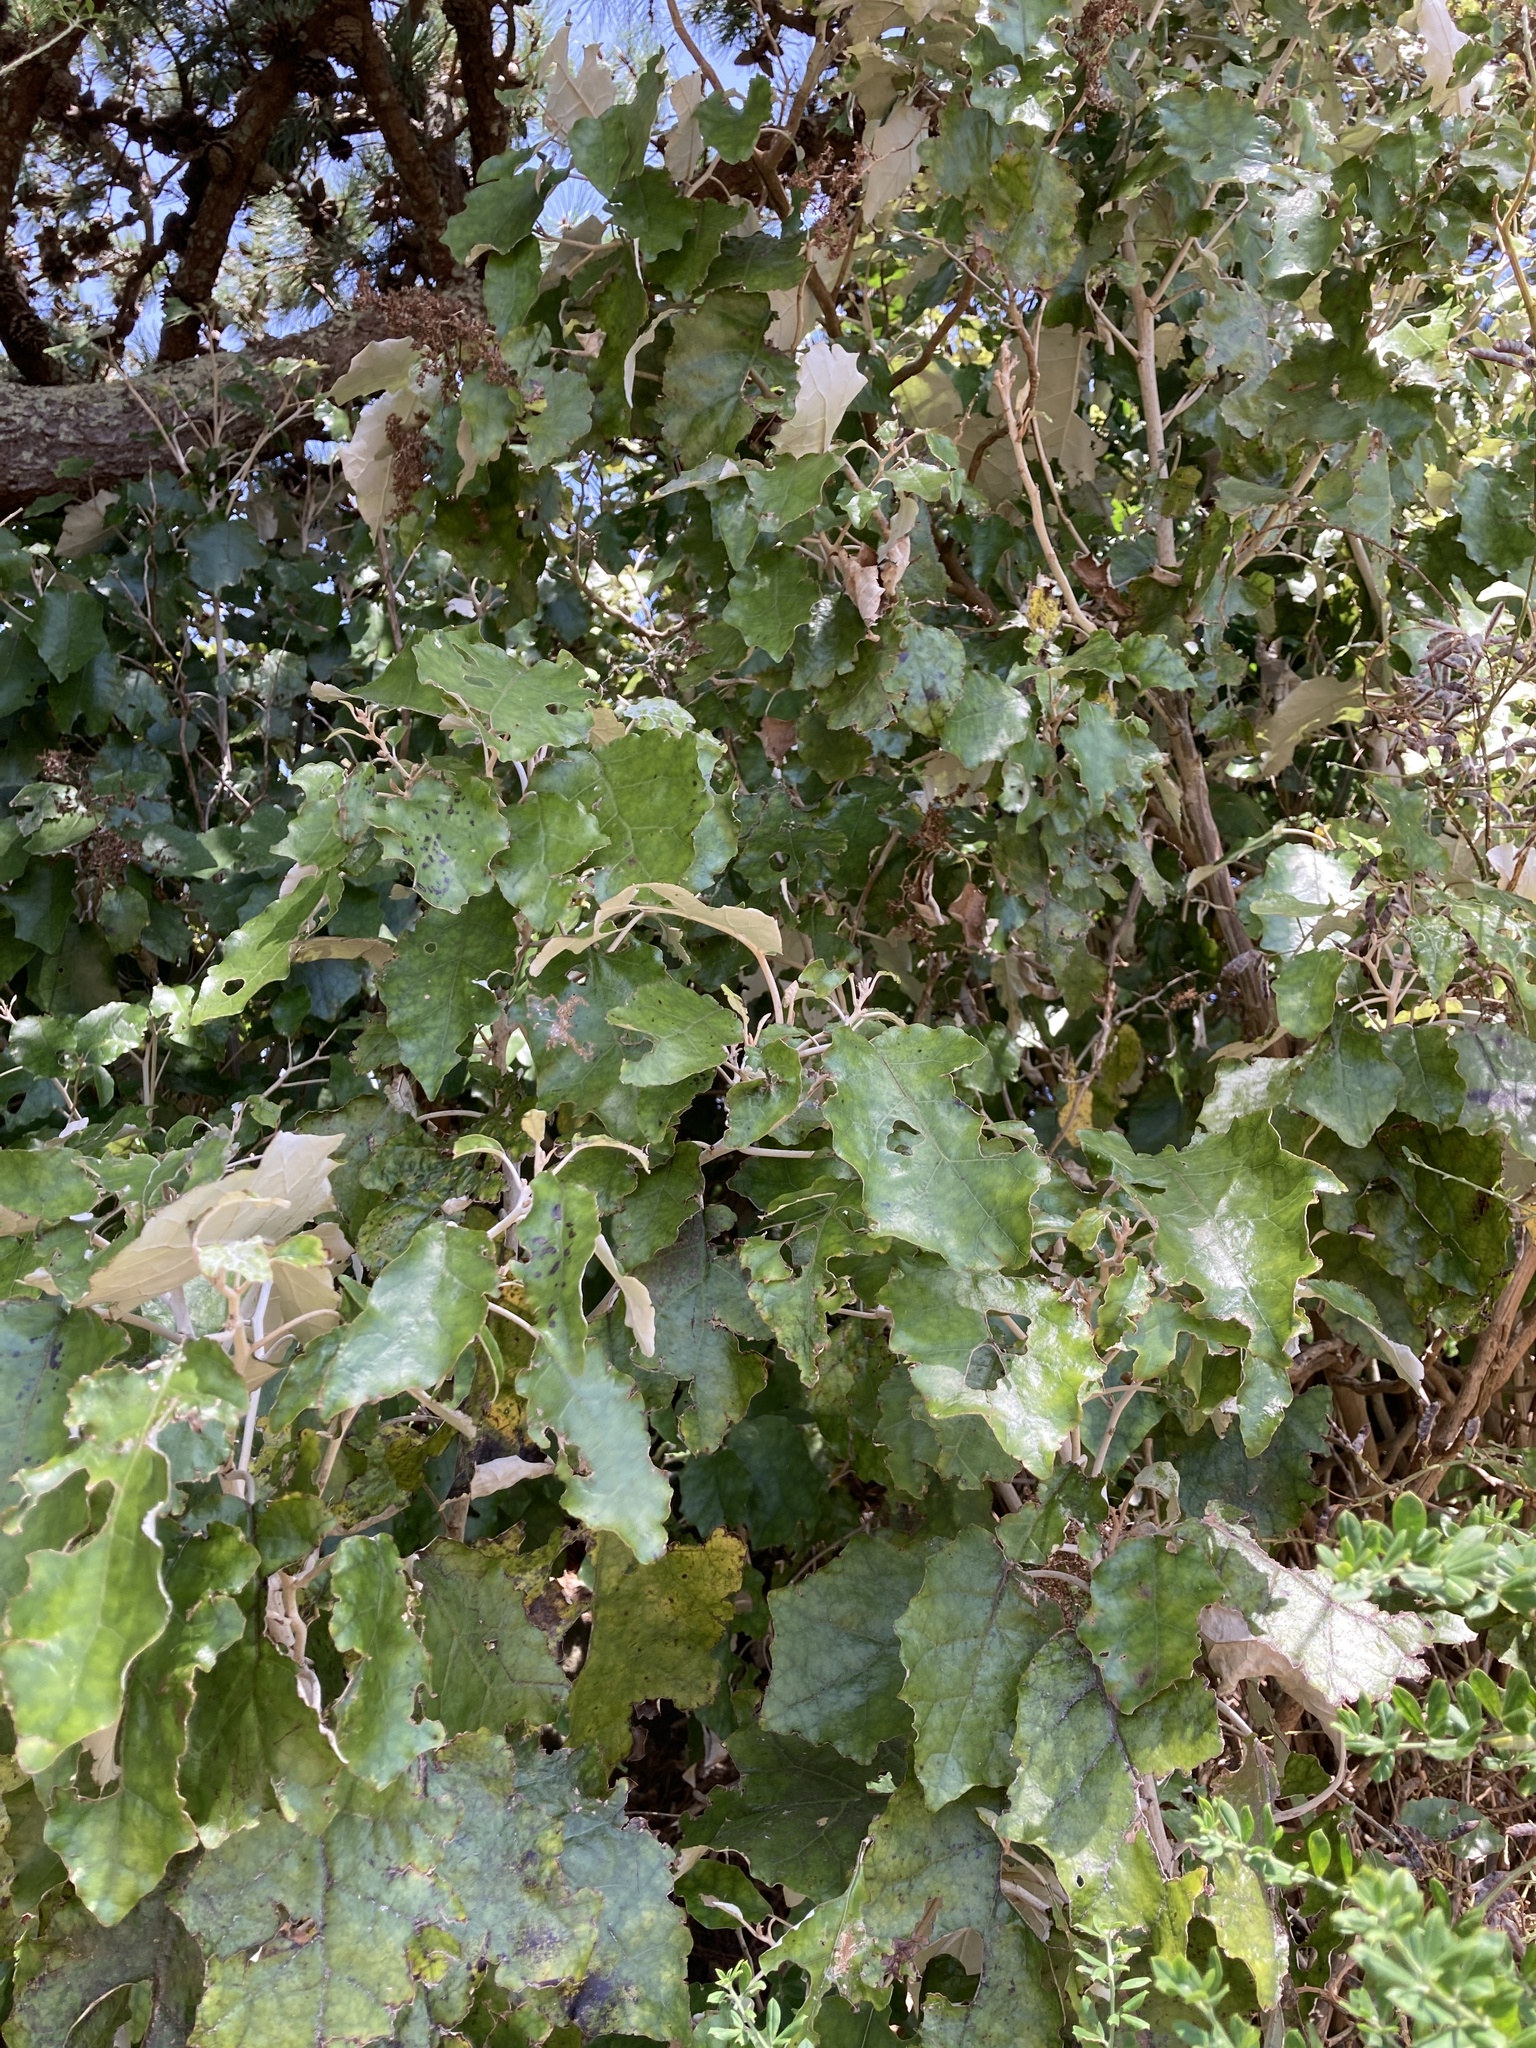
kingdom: Plantae
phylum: Tracheophyta
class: Magnoliopsida
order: Asterales
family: Asteraceae
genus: Brachyglottis
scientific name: Brachyglottis repanda
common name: Hedge ragwort
